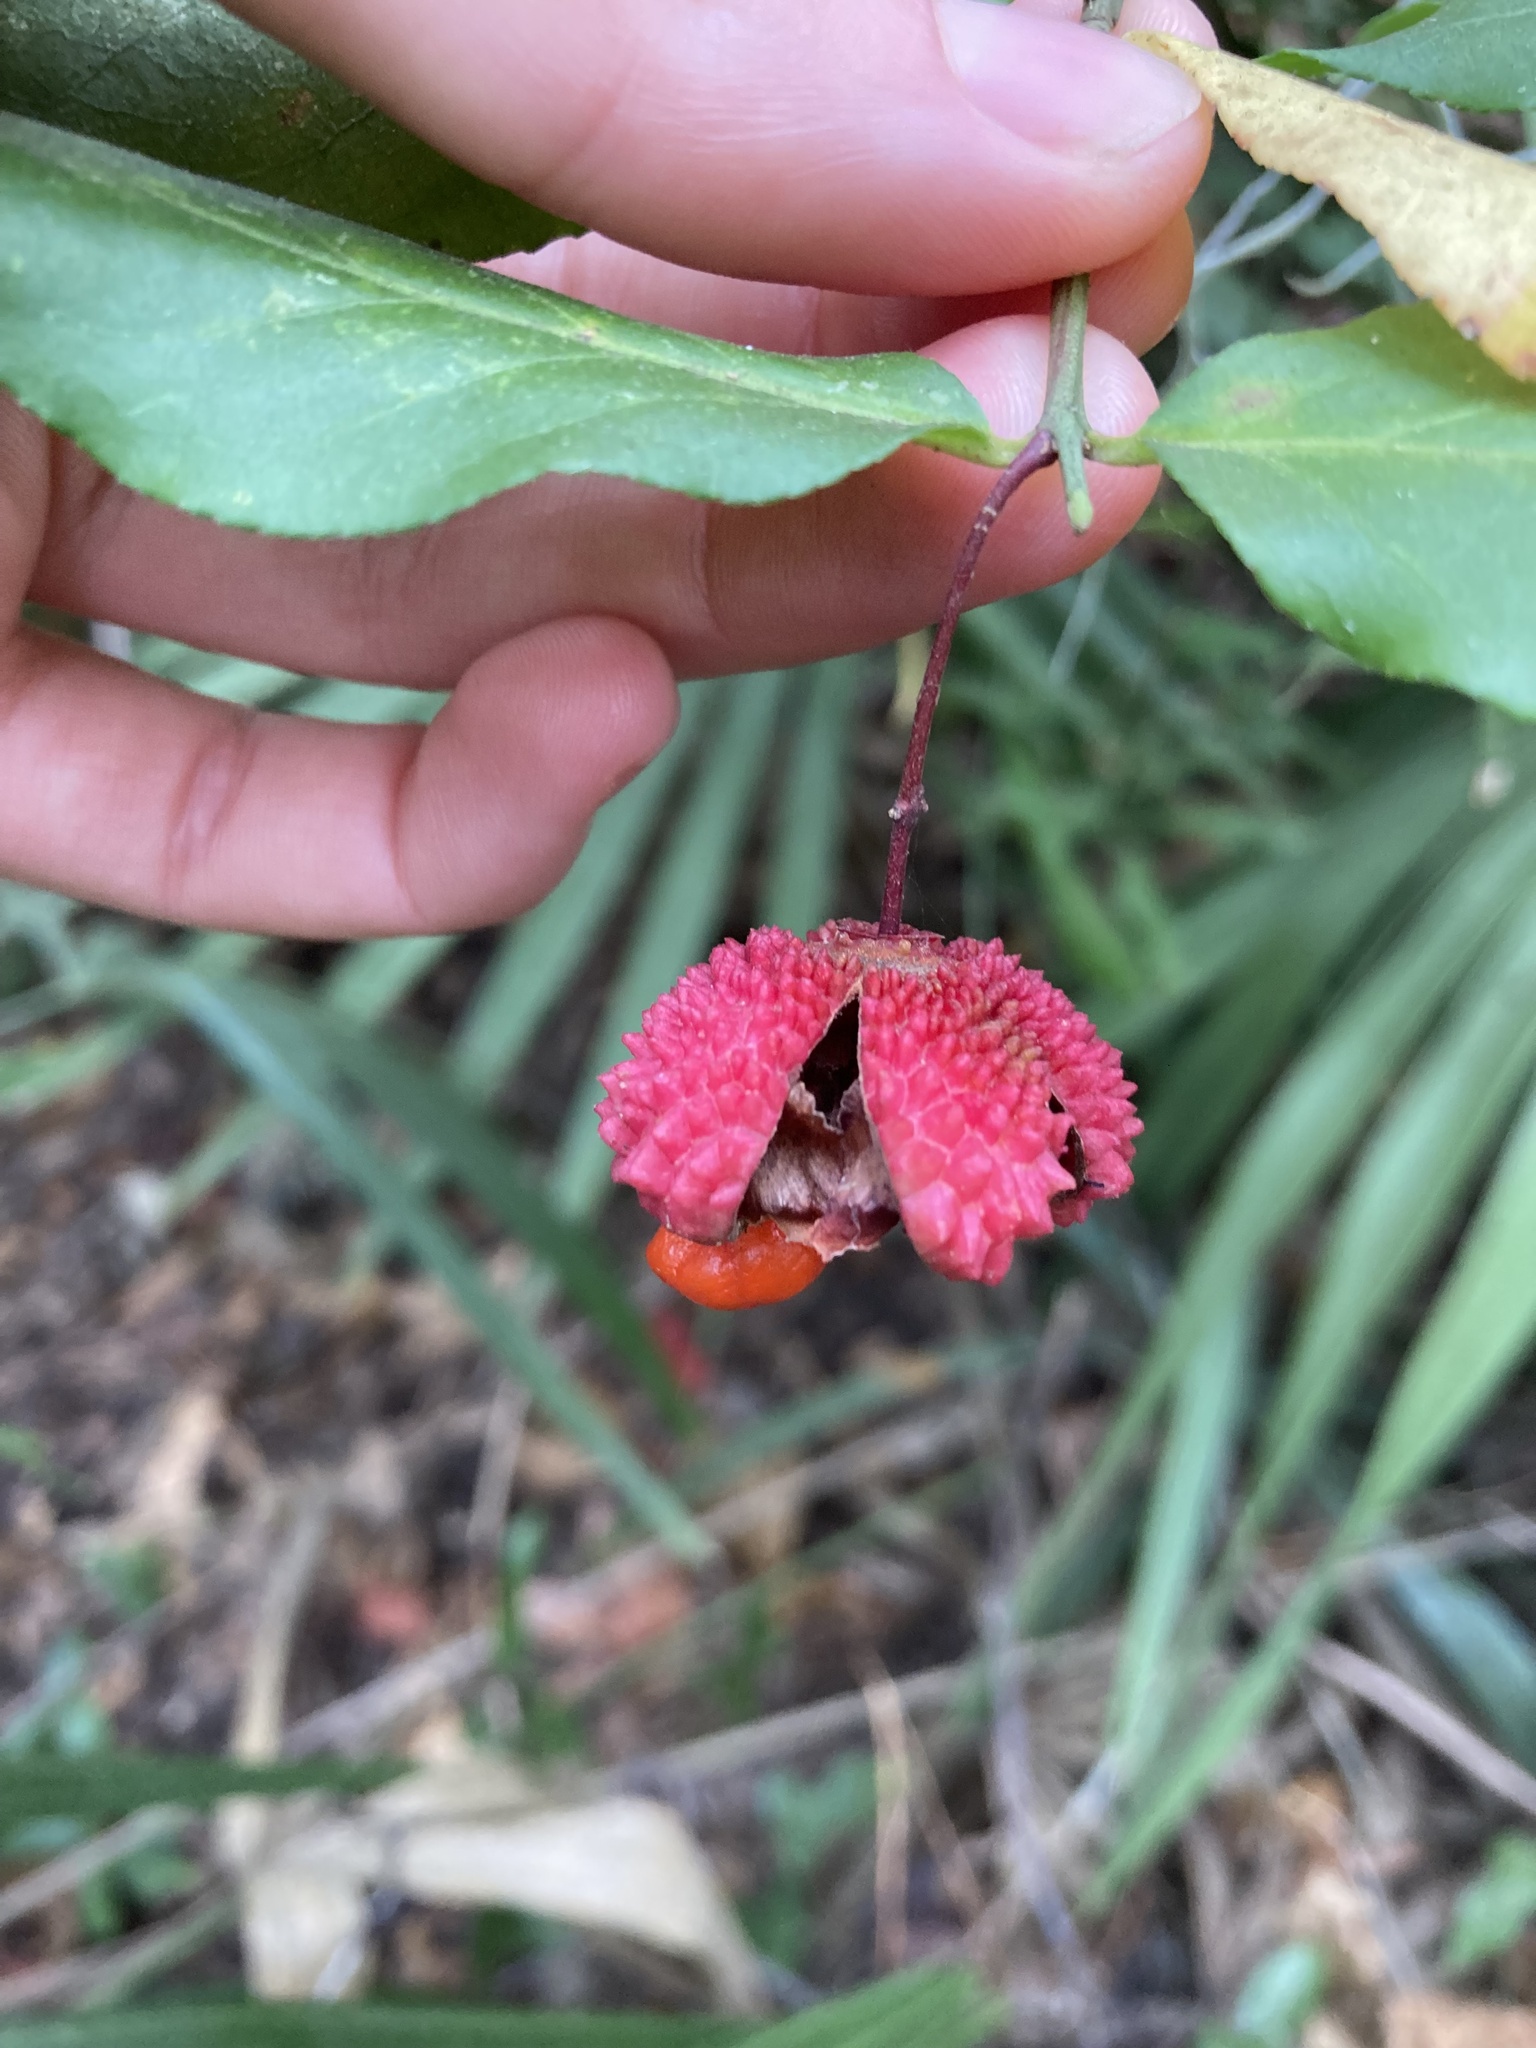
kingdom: Plantae
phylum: Tracheophyta
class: Magnoliopsida
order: Celastrales
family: Celastraceae
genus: Euonymus
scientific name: Euonymus americanus
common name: Bursting-heart
